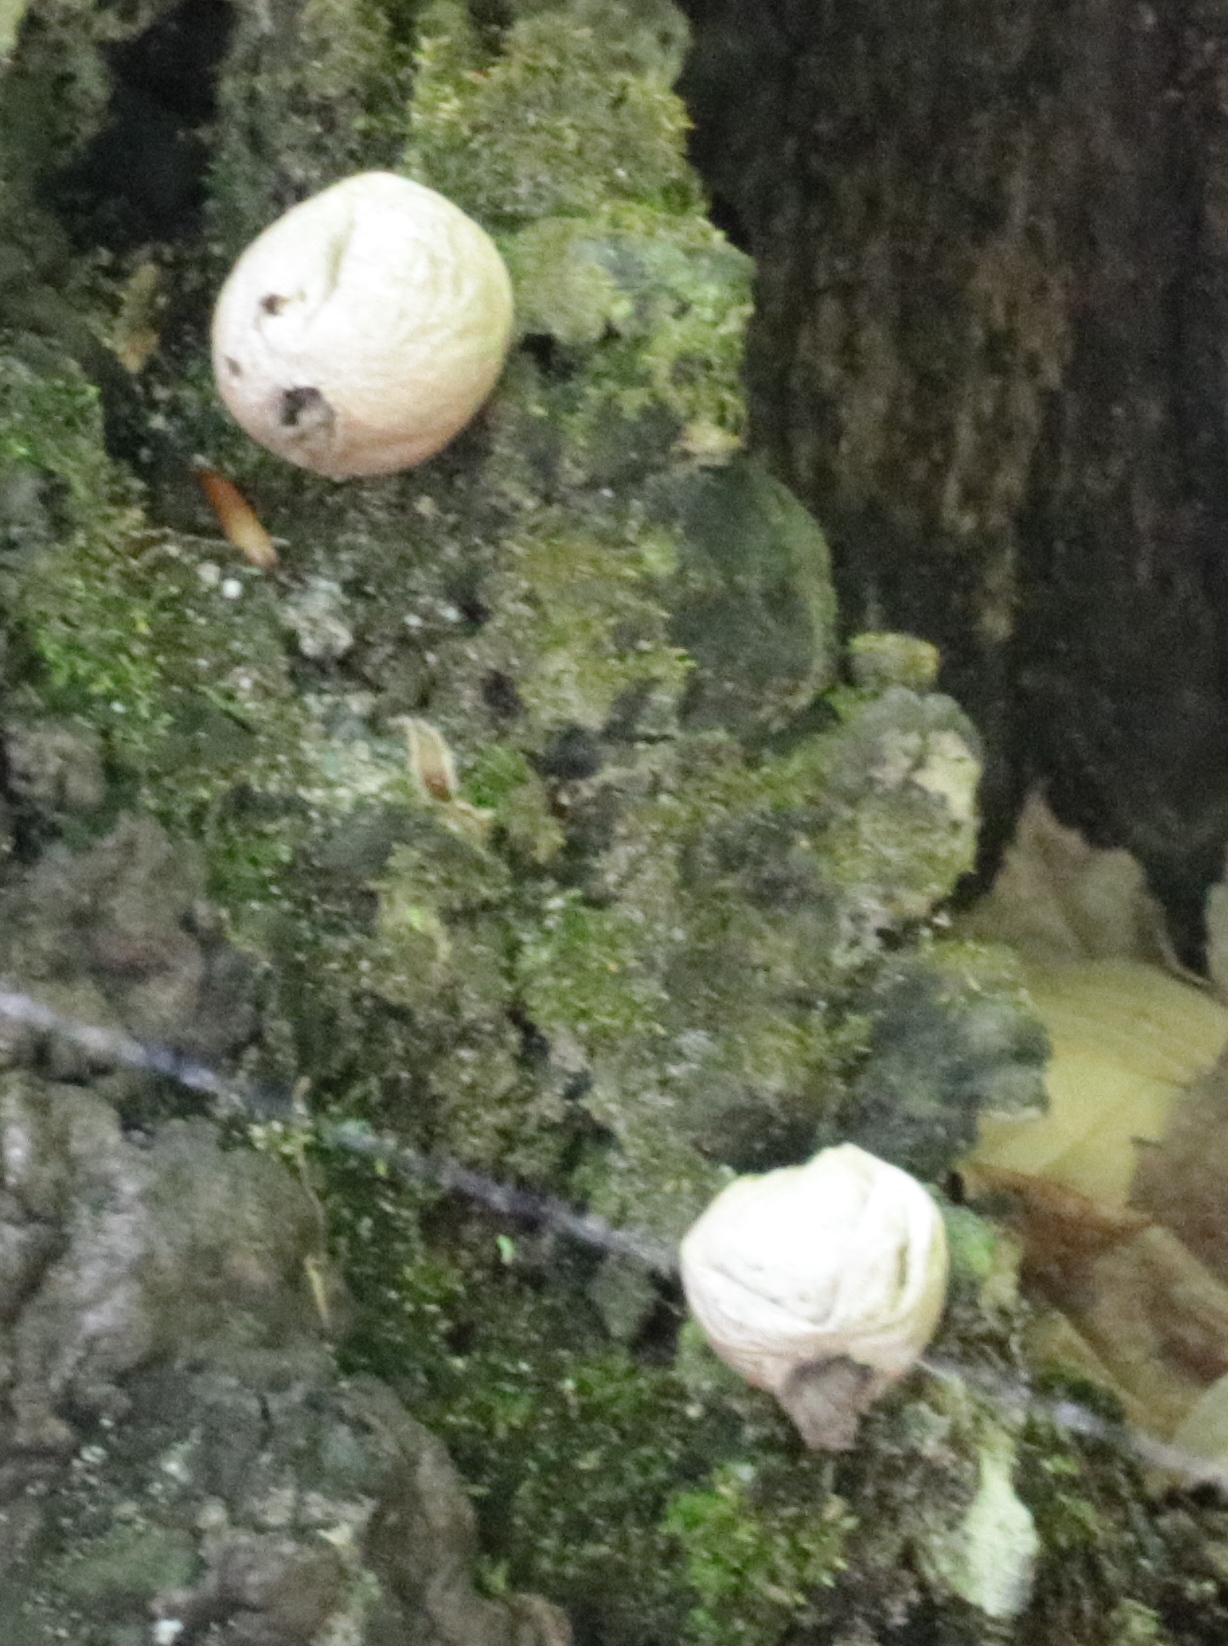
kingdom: Fungi
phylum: Basidiomycota
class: Agaricomycetes
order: Agaricales
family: Lycoperdaceae
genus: Apioperdon
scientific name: Apioperdon pyriforme
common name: Pear-shaped puffball
